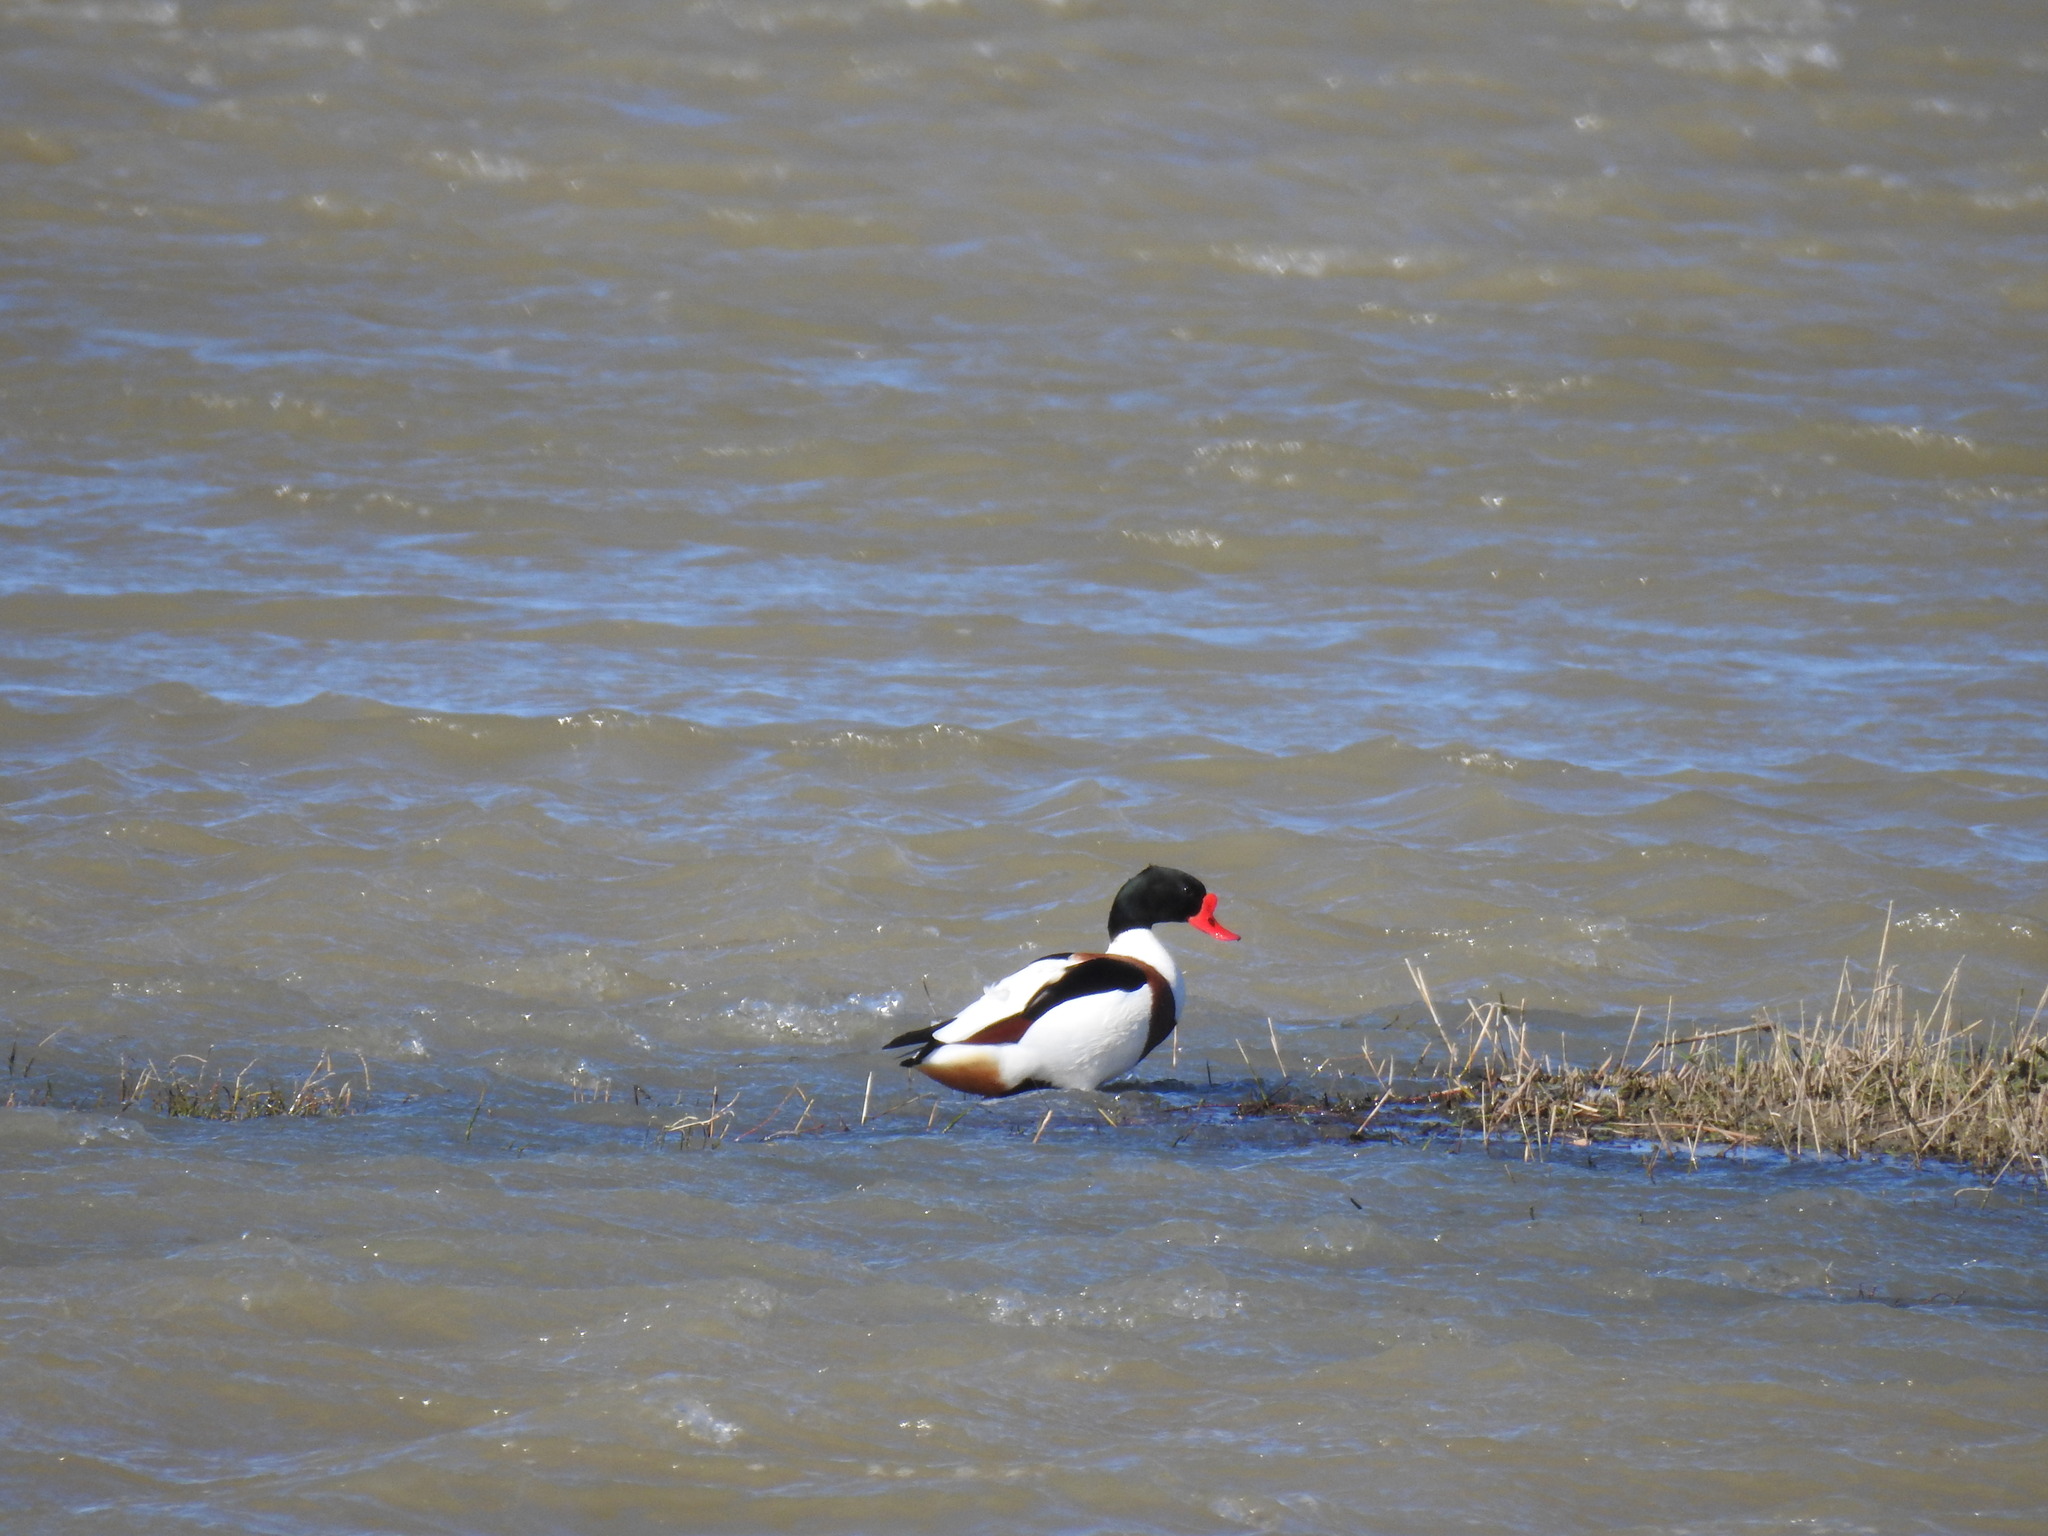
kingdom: Animalia
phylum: Chordata
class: Aves
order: Anseriformes
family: Anatidae
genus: Tadorna
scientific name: Tadorna tadorna
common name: Common shelduck
